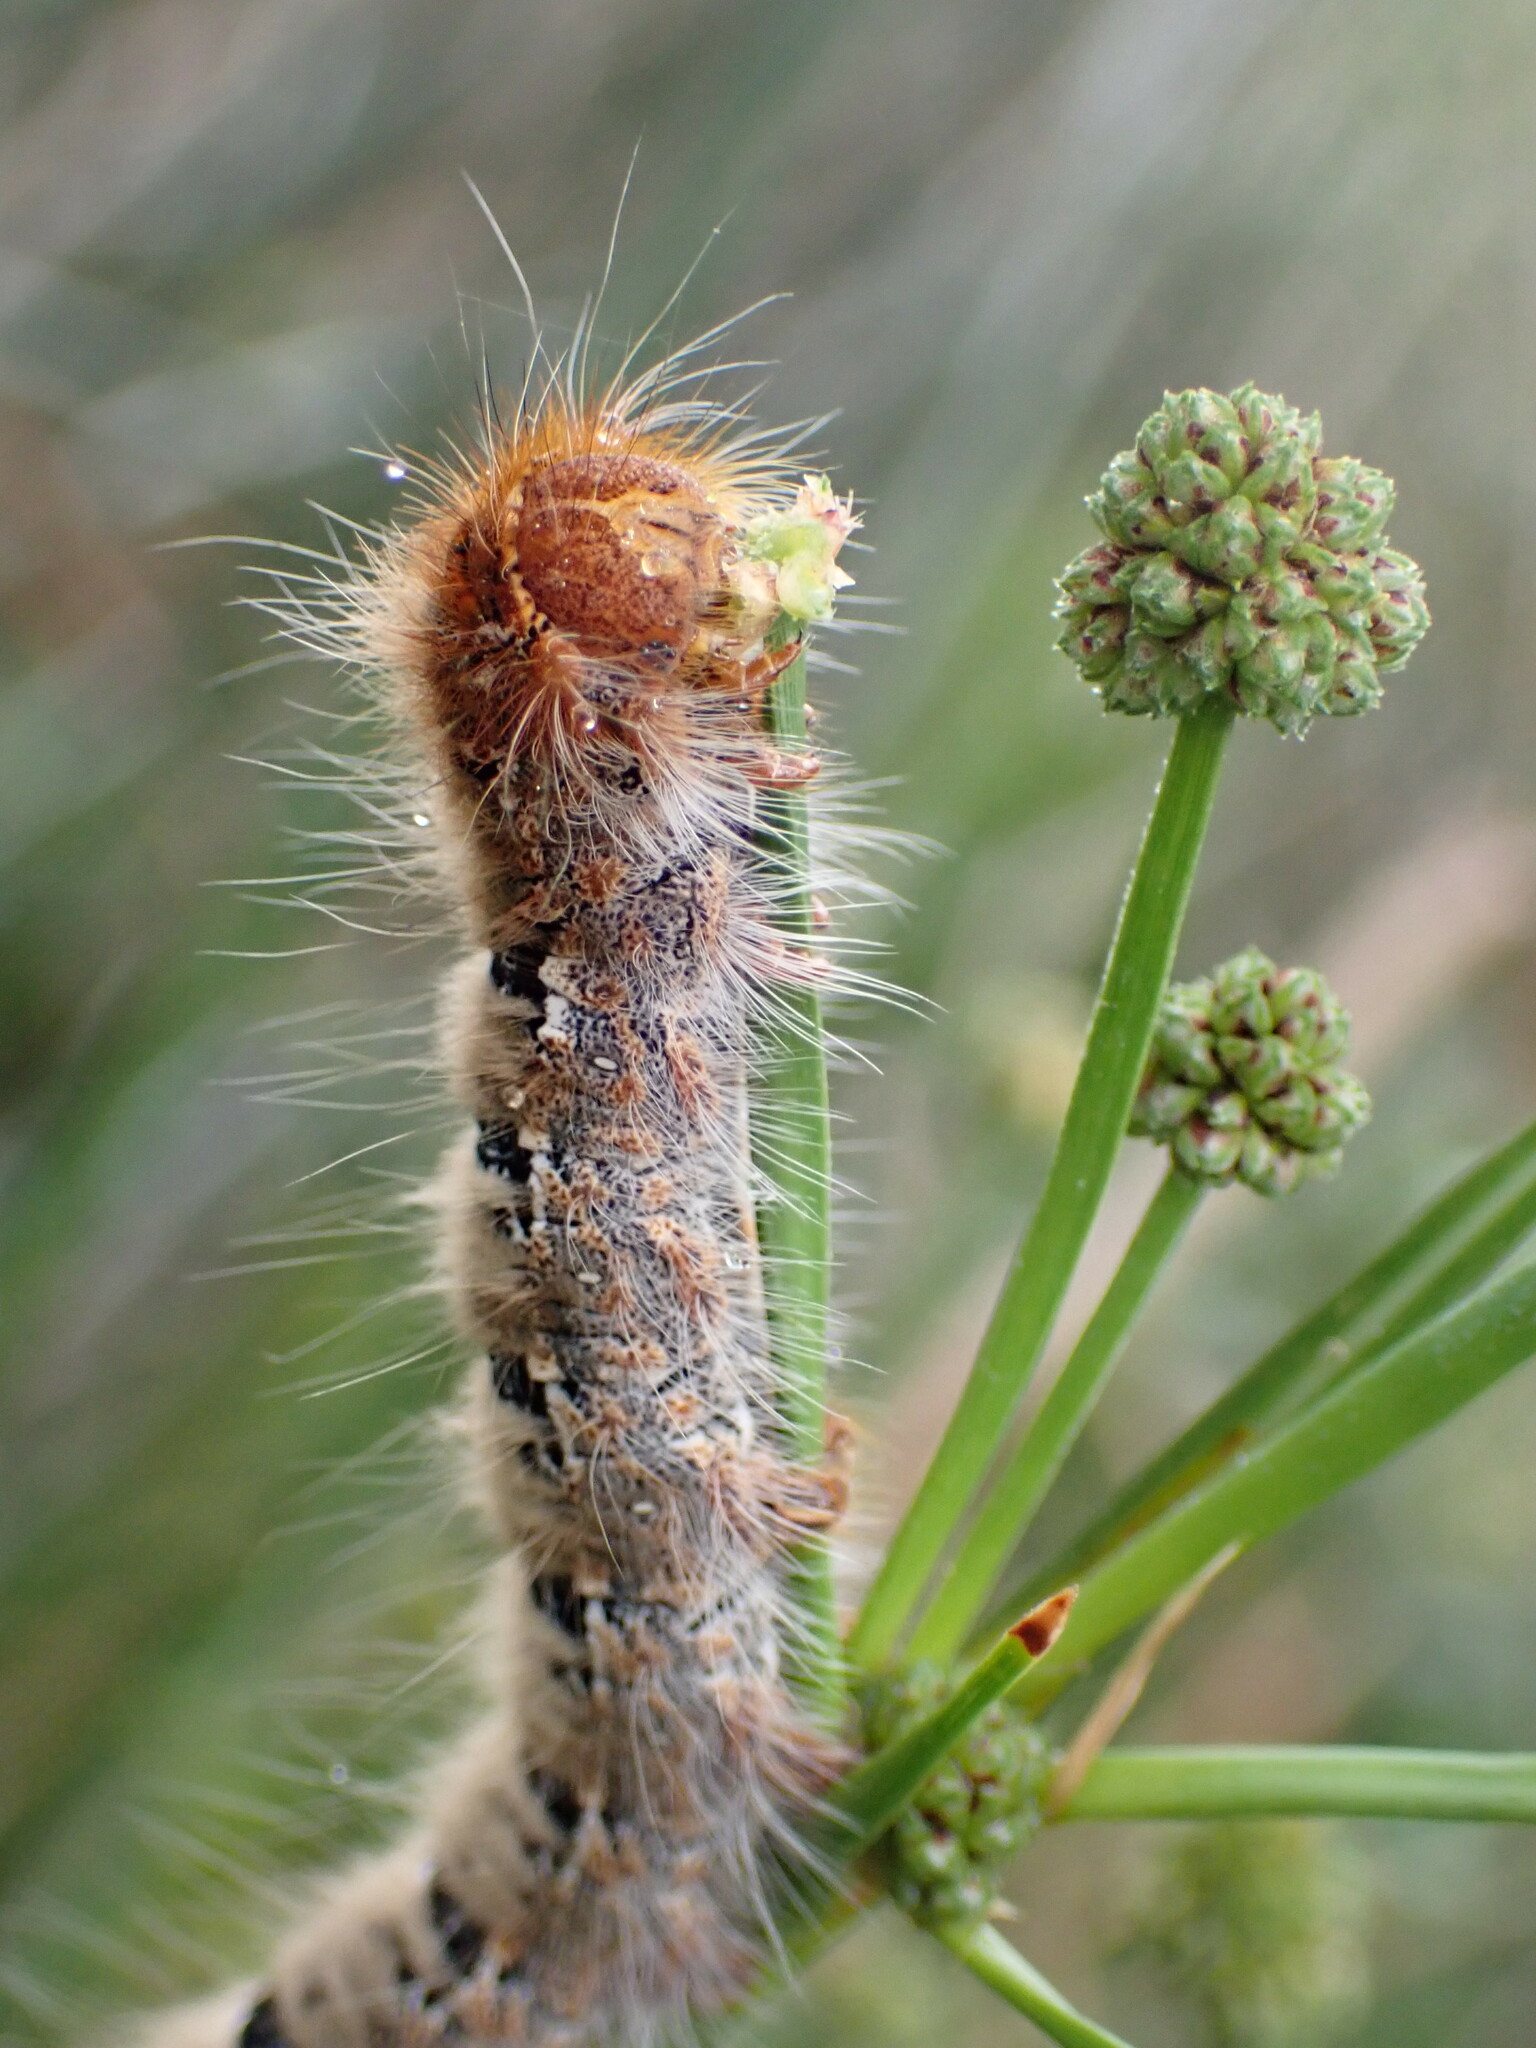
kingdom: Animalia
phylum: Arthropoda
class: Insecta
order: Lepidoptera
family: Lasiocampidae
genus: Lasiocampa
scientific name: Lasiocampa quercus
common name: Oak eggar
